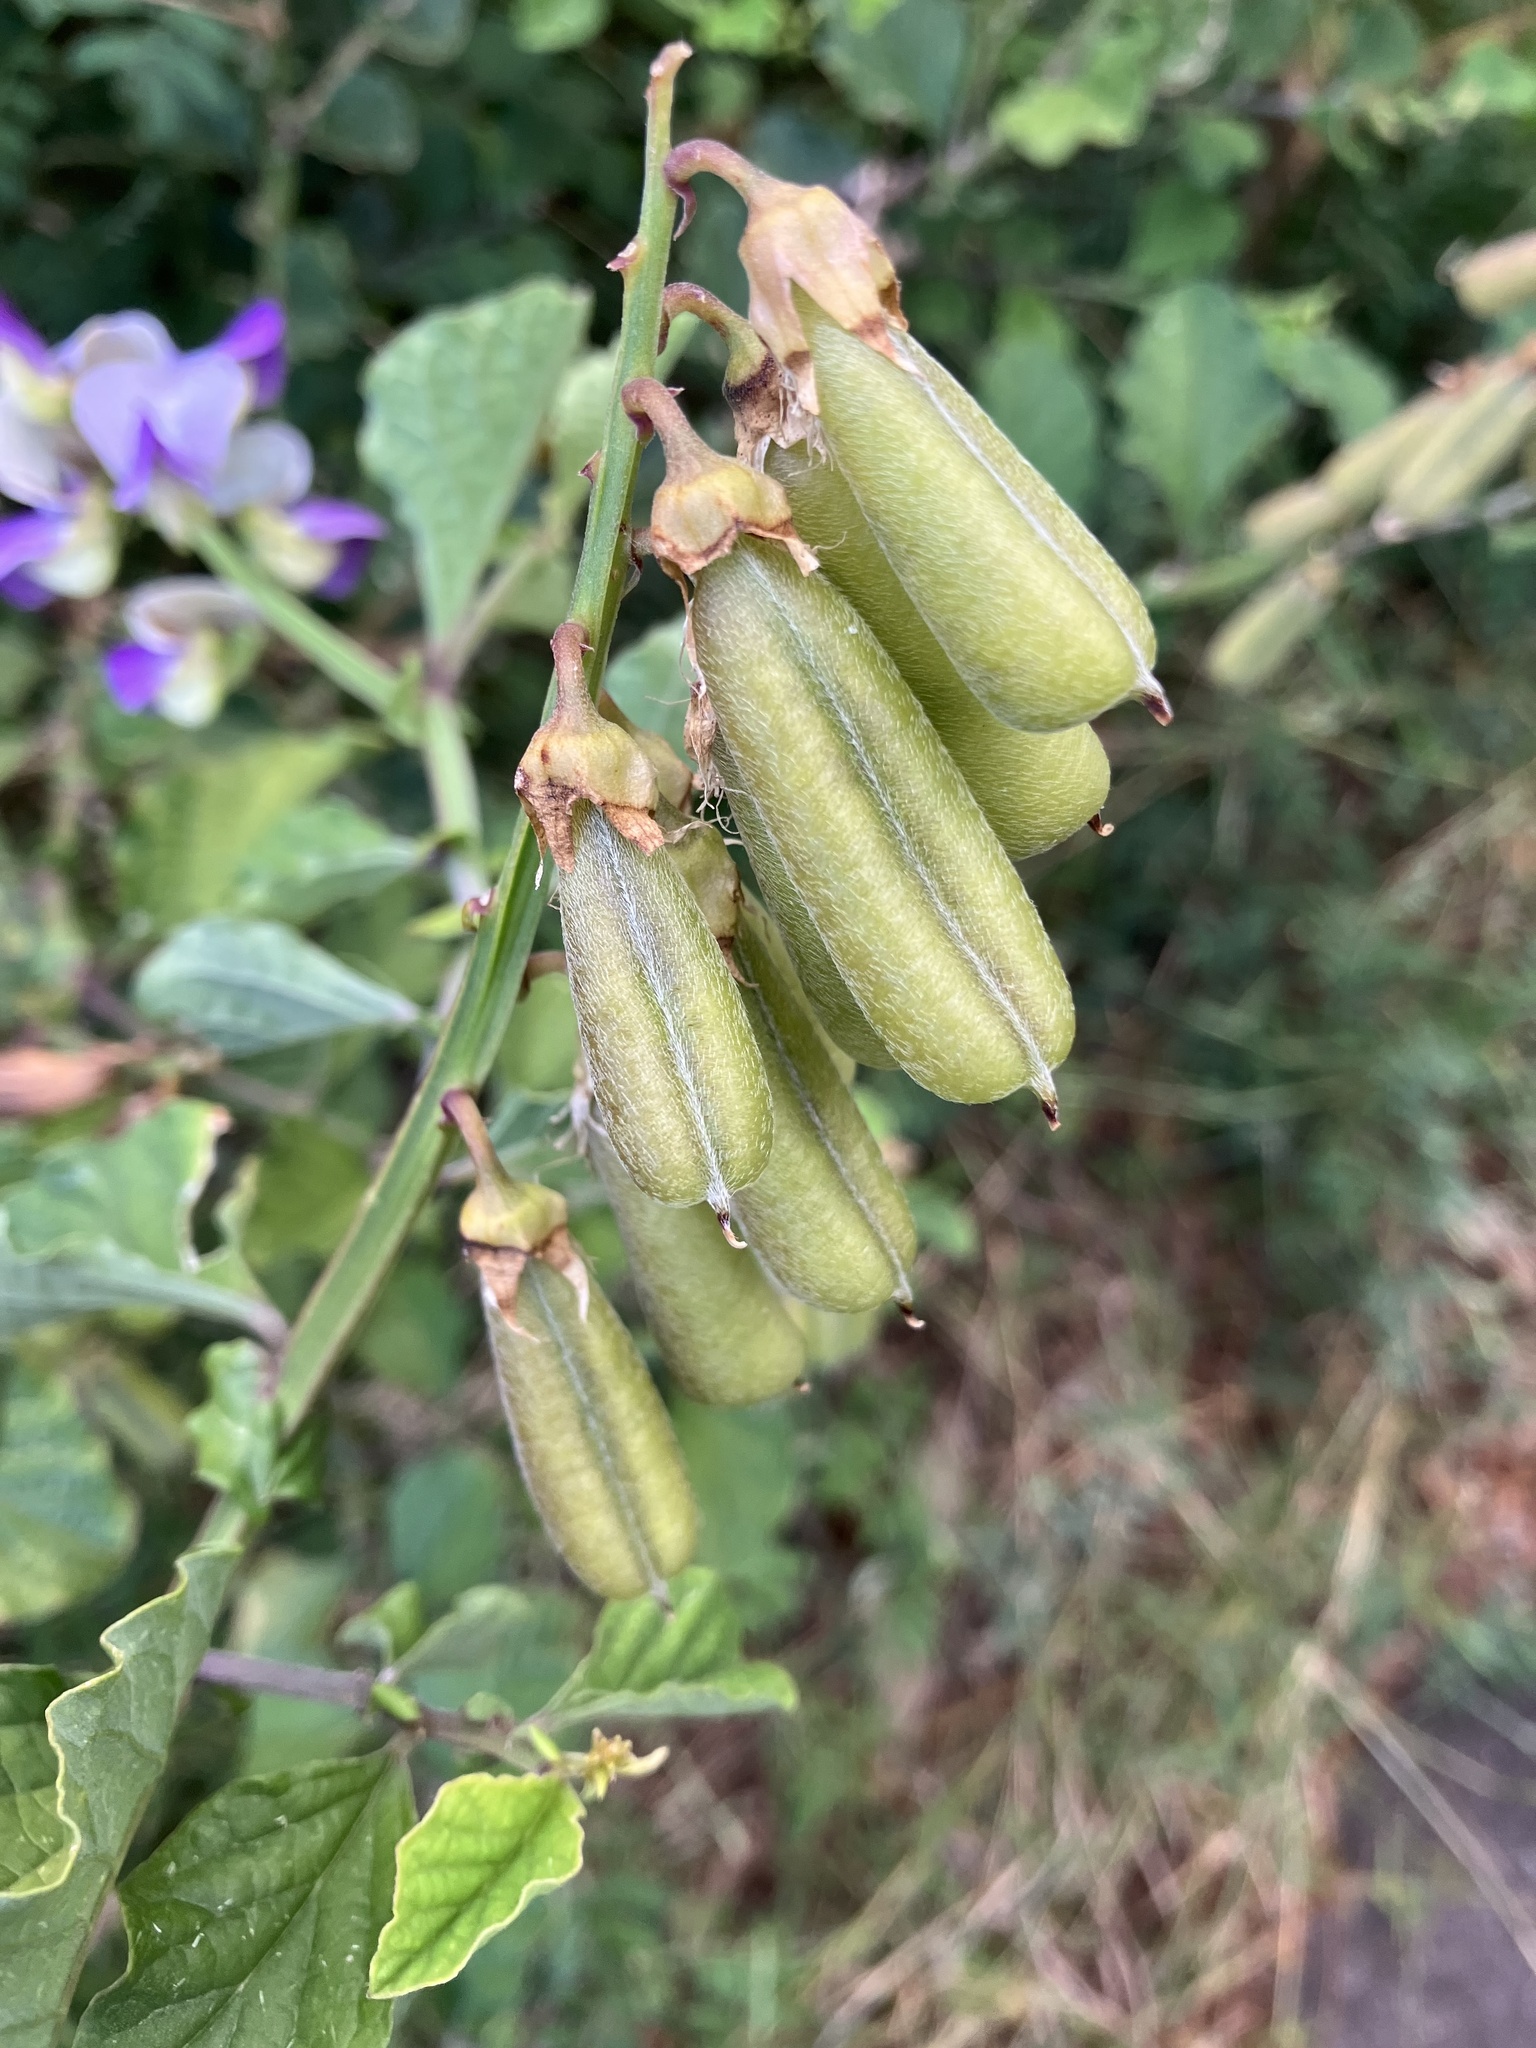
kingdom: Plantae
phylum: Tracheophyta
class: Magnoliopsida
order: Fabales
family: Fabaceae
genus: Crotalaria
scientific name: Crotalaria verrucosa
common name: Blue rattlesnake
